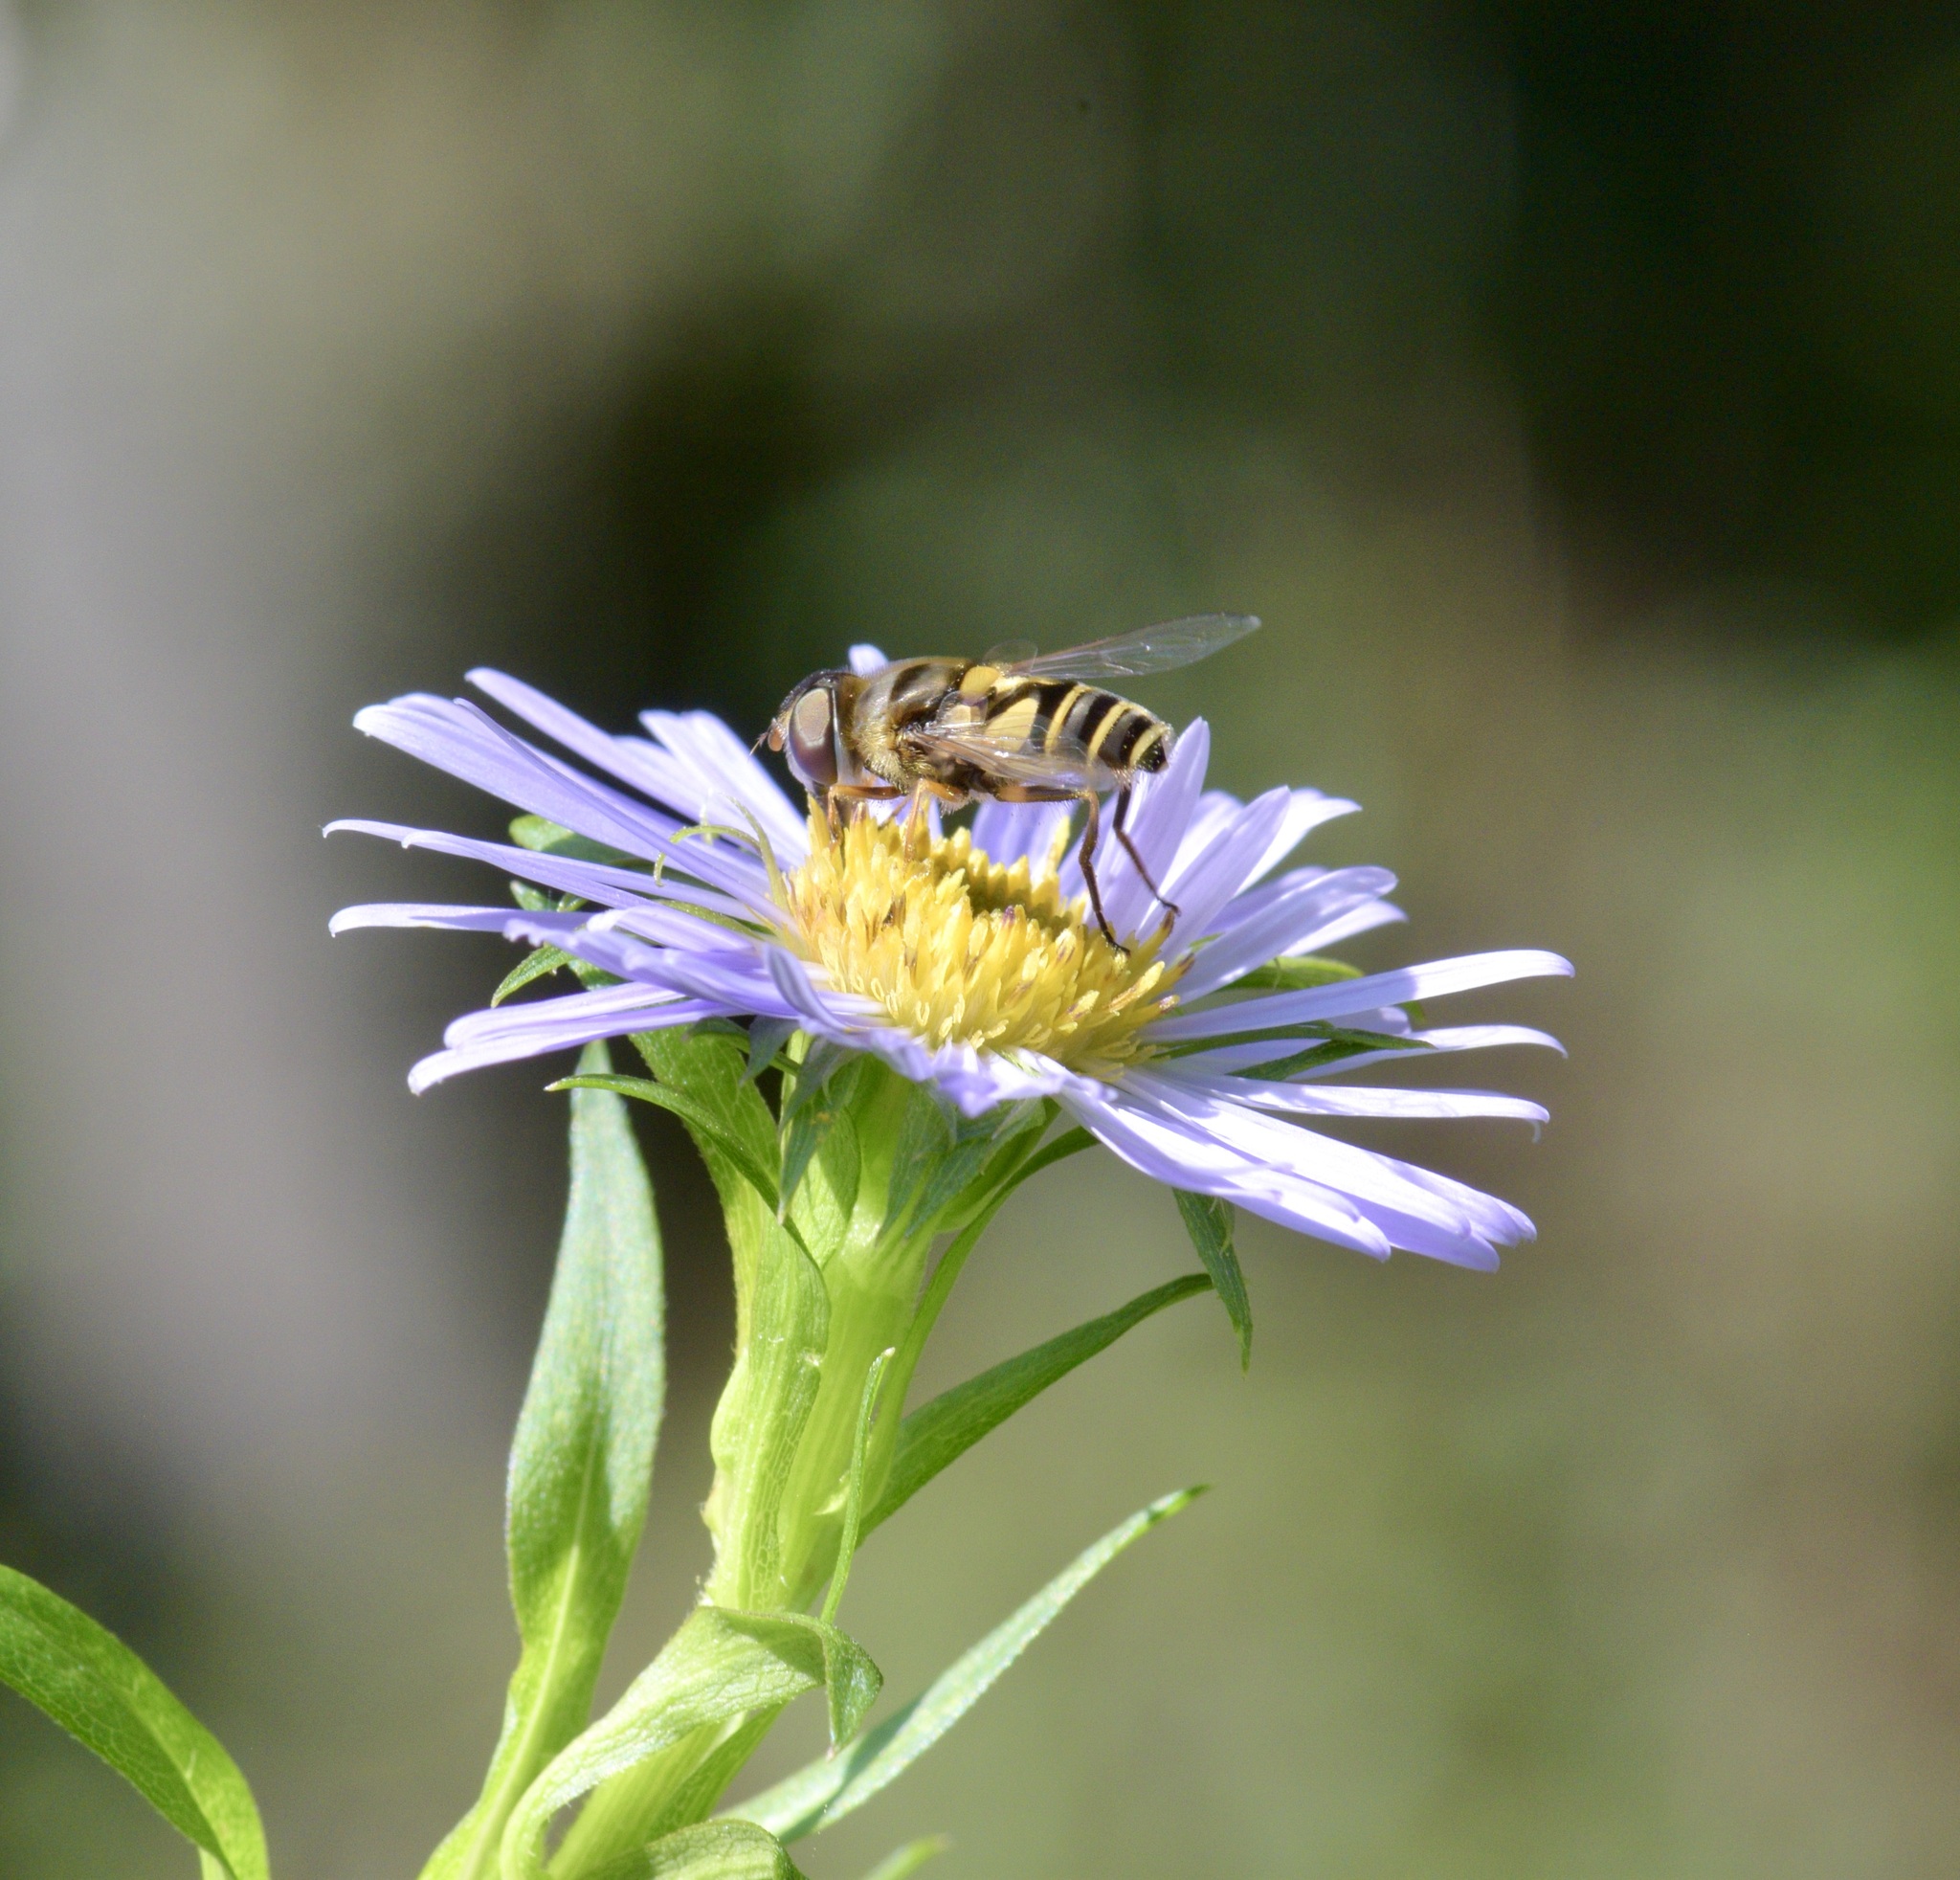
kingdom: Animalia
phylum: Arthropoda
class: Insecta
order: Diptera
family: Syrphidae
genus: Eristalis
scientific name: Eristalis transversa
